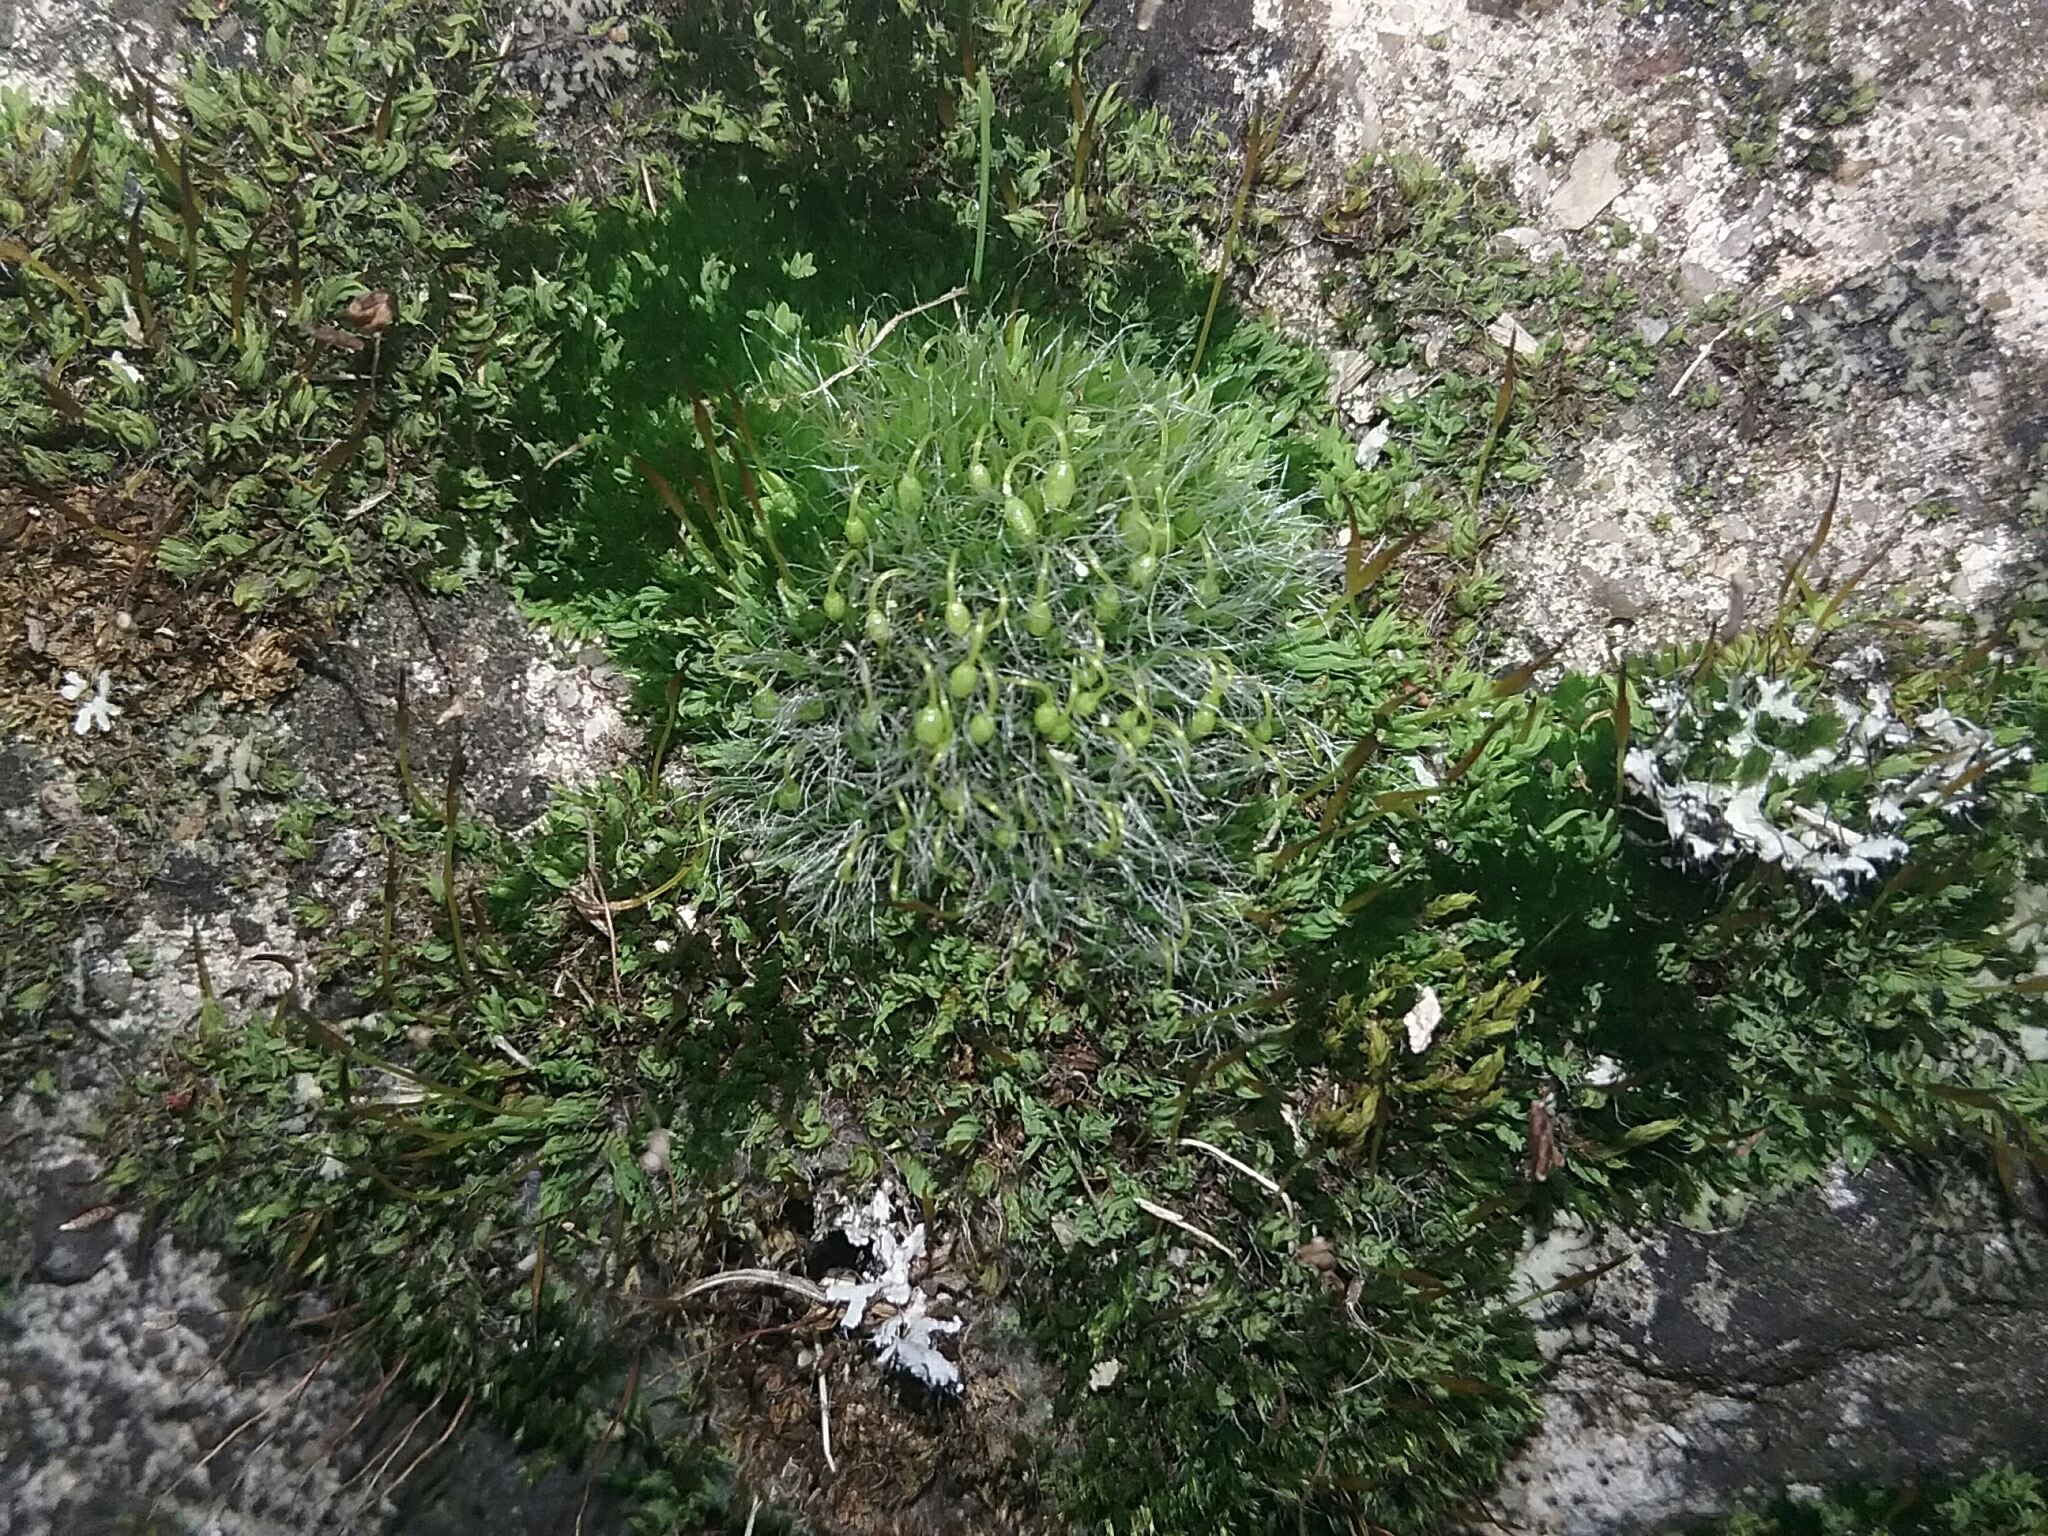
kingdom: Plantae
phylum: Bryophyta
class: Bryopsida
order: Grimmiales
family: Grimmiaceae
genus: Grimmia
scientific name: Grimmia pulvinata
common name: Grey-cushioned grimmia
